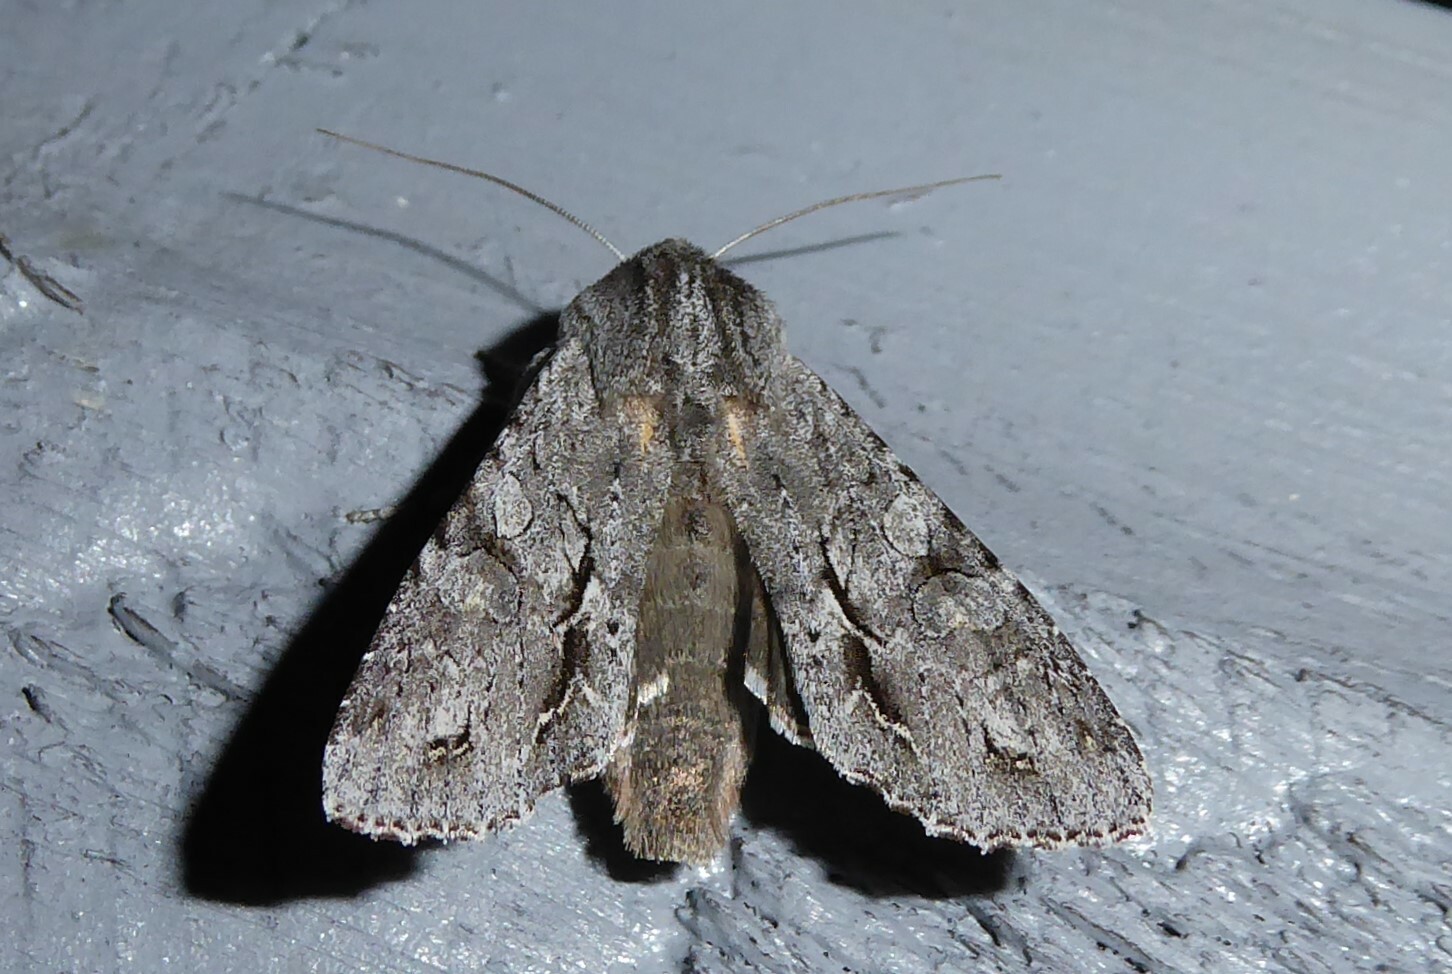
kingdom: Animalia
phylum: Arthropoda
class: Insecta
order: Lepidoptera
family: Noctuidae
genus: Ichneutica
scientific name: Ichneutica
